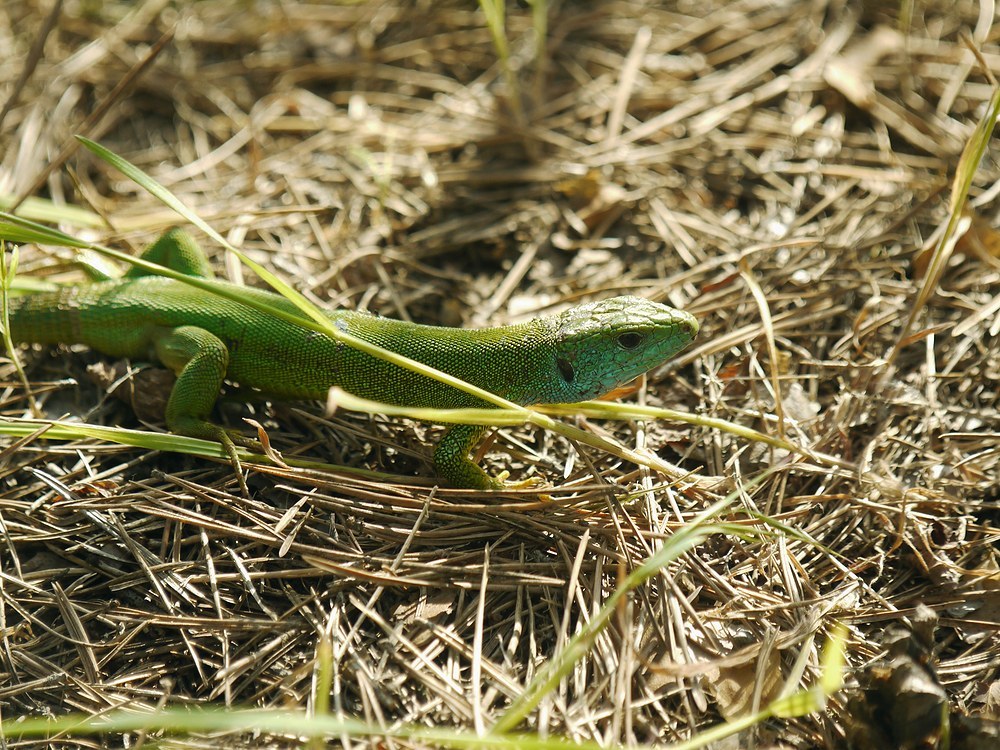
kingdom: Animalia
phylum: Chordata
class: Squamata
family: Lacertidae
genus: Lacerta
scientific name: Lacerta viridis
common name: European green lizard
